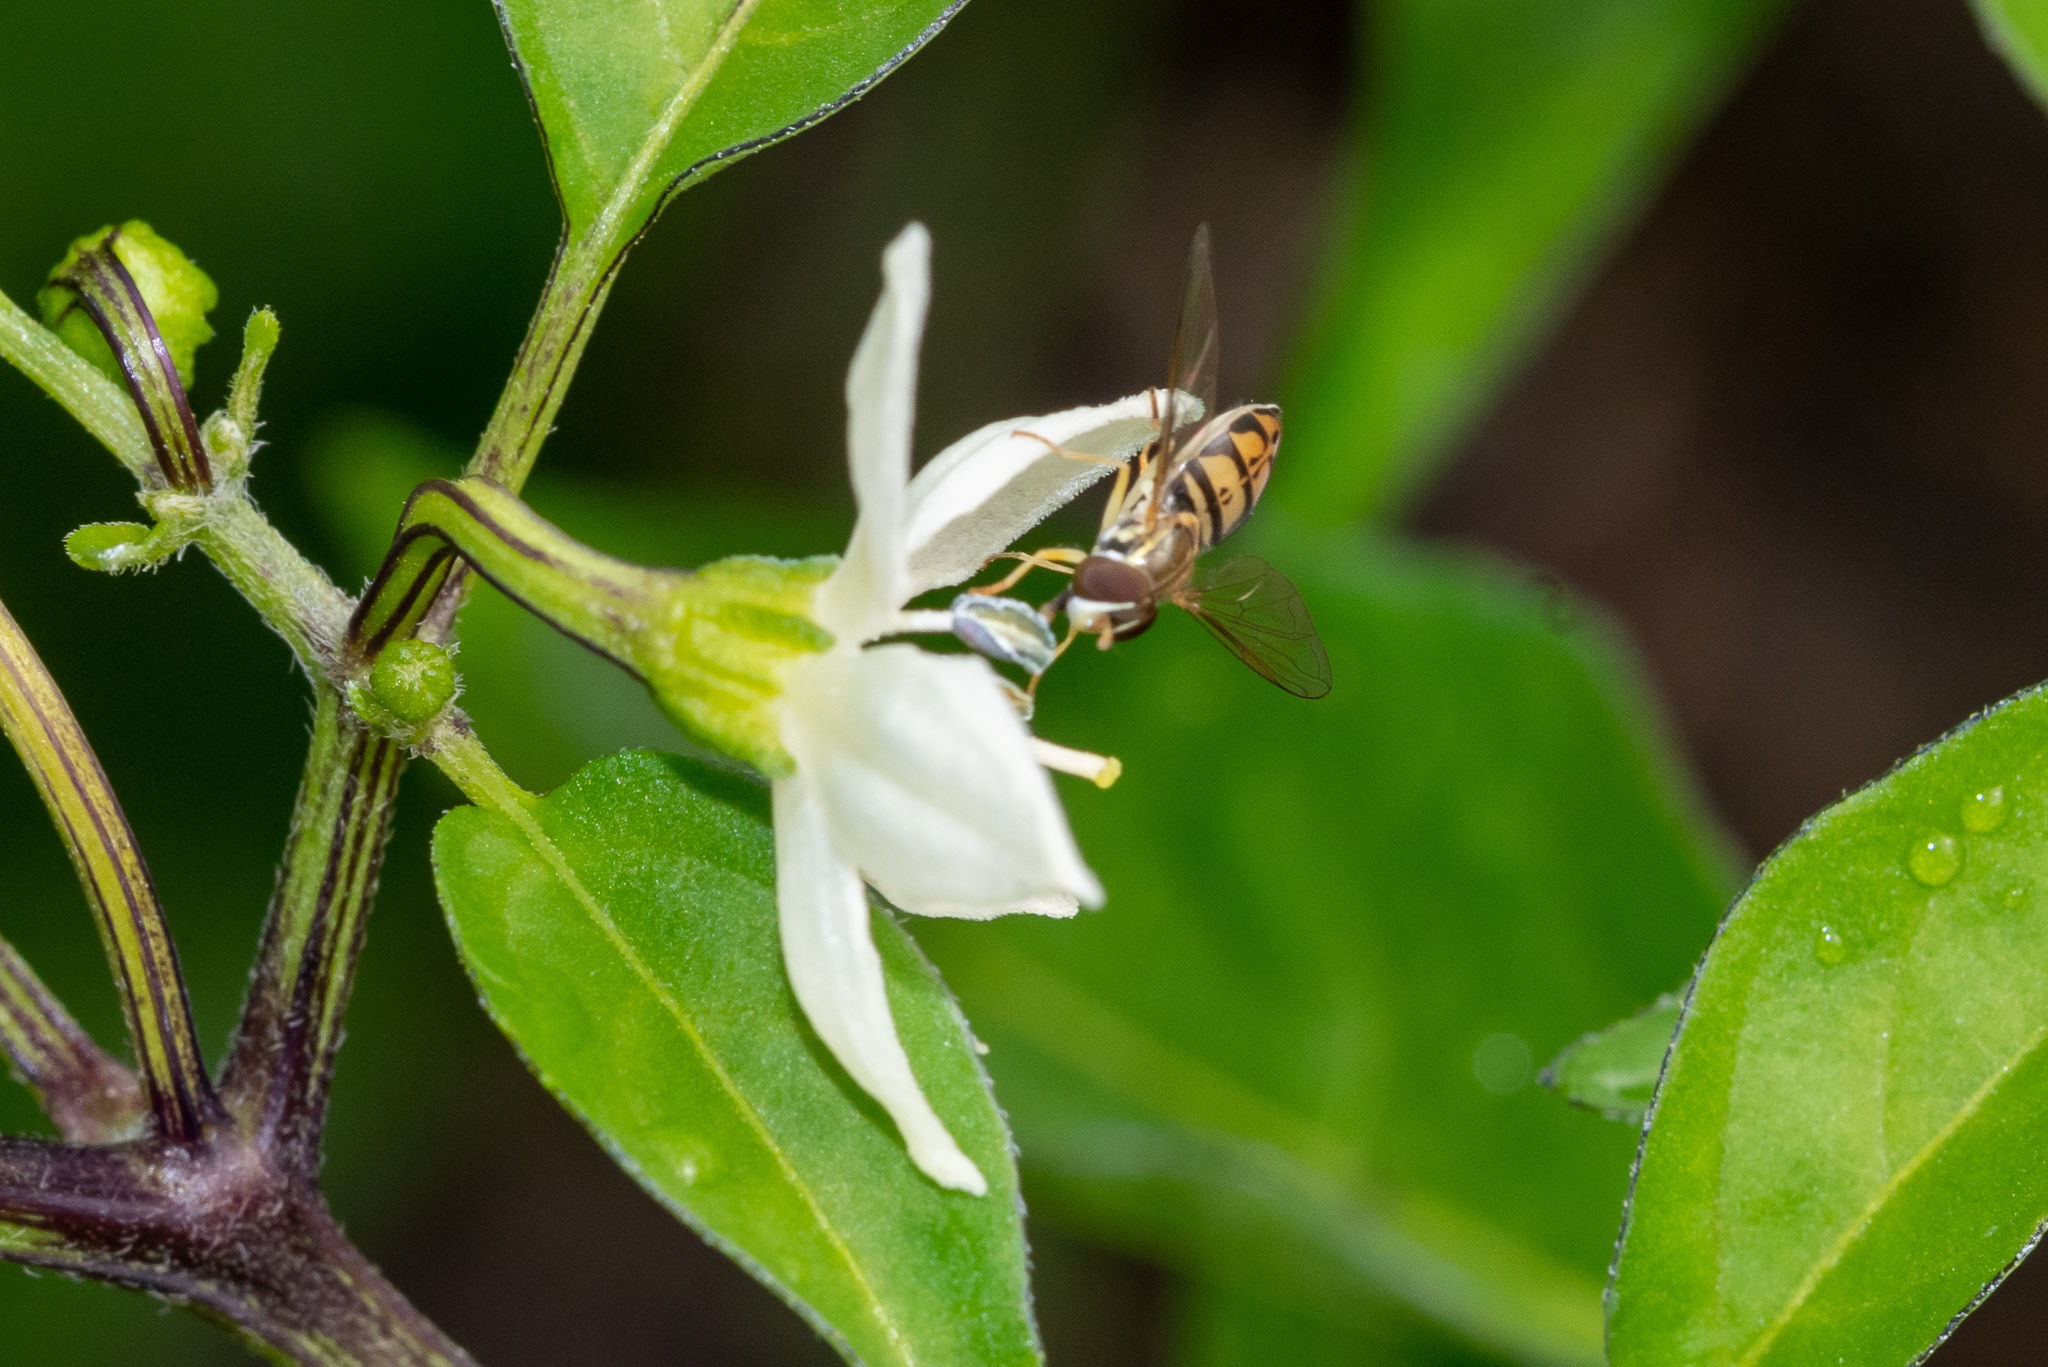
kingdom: Animalia
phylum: Arthropoda
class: Insecta
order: Diptera
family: Syrphidae
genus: Toxomerus
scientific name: Toxomerus marginatus
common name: Syrphid fly
